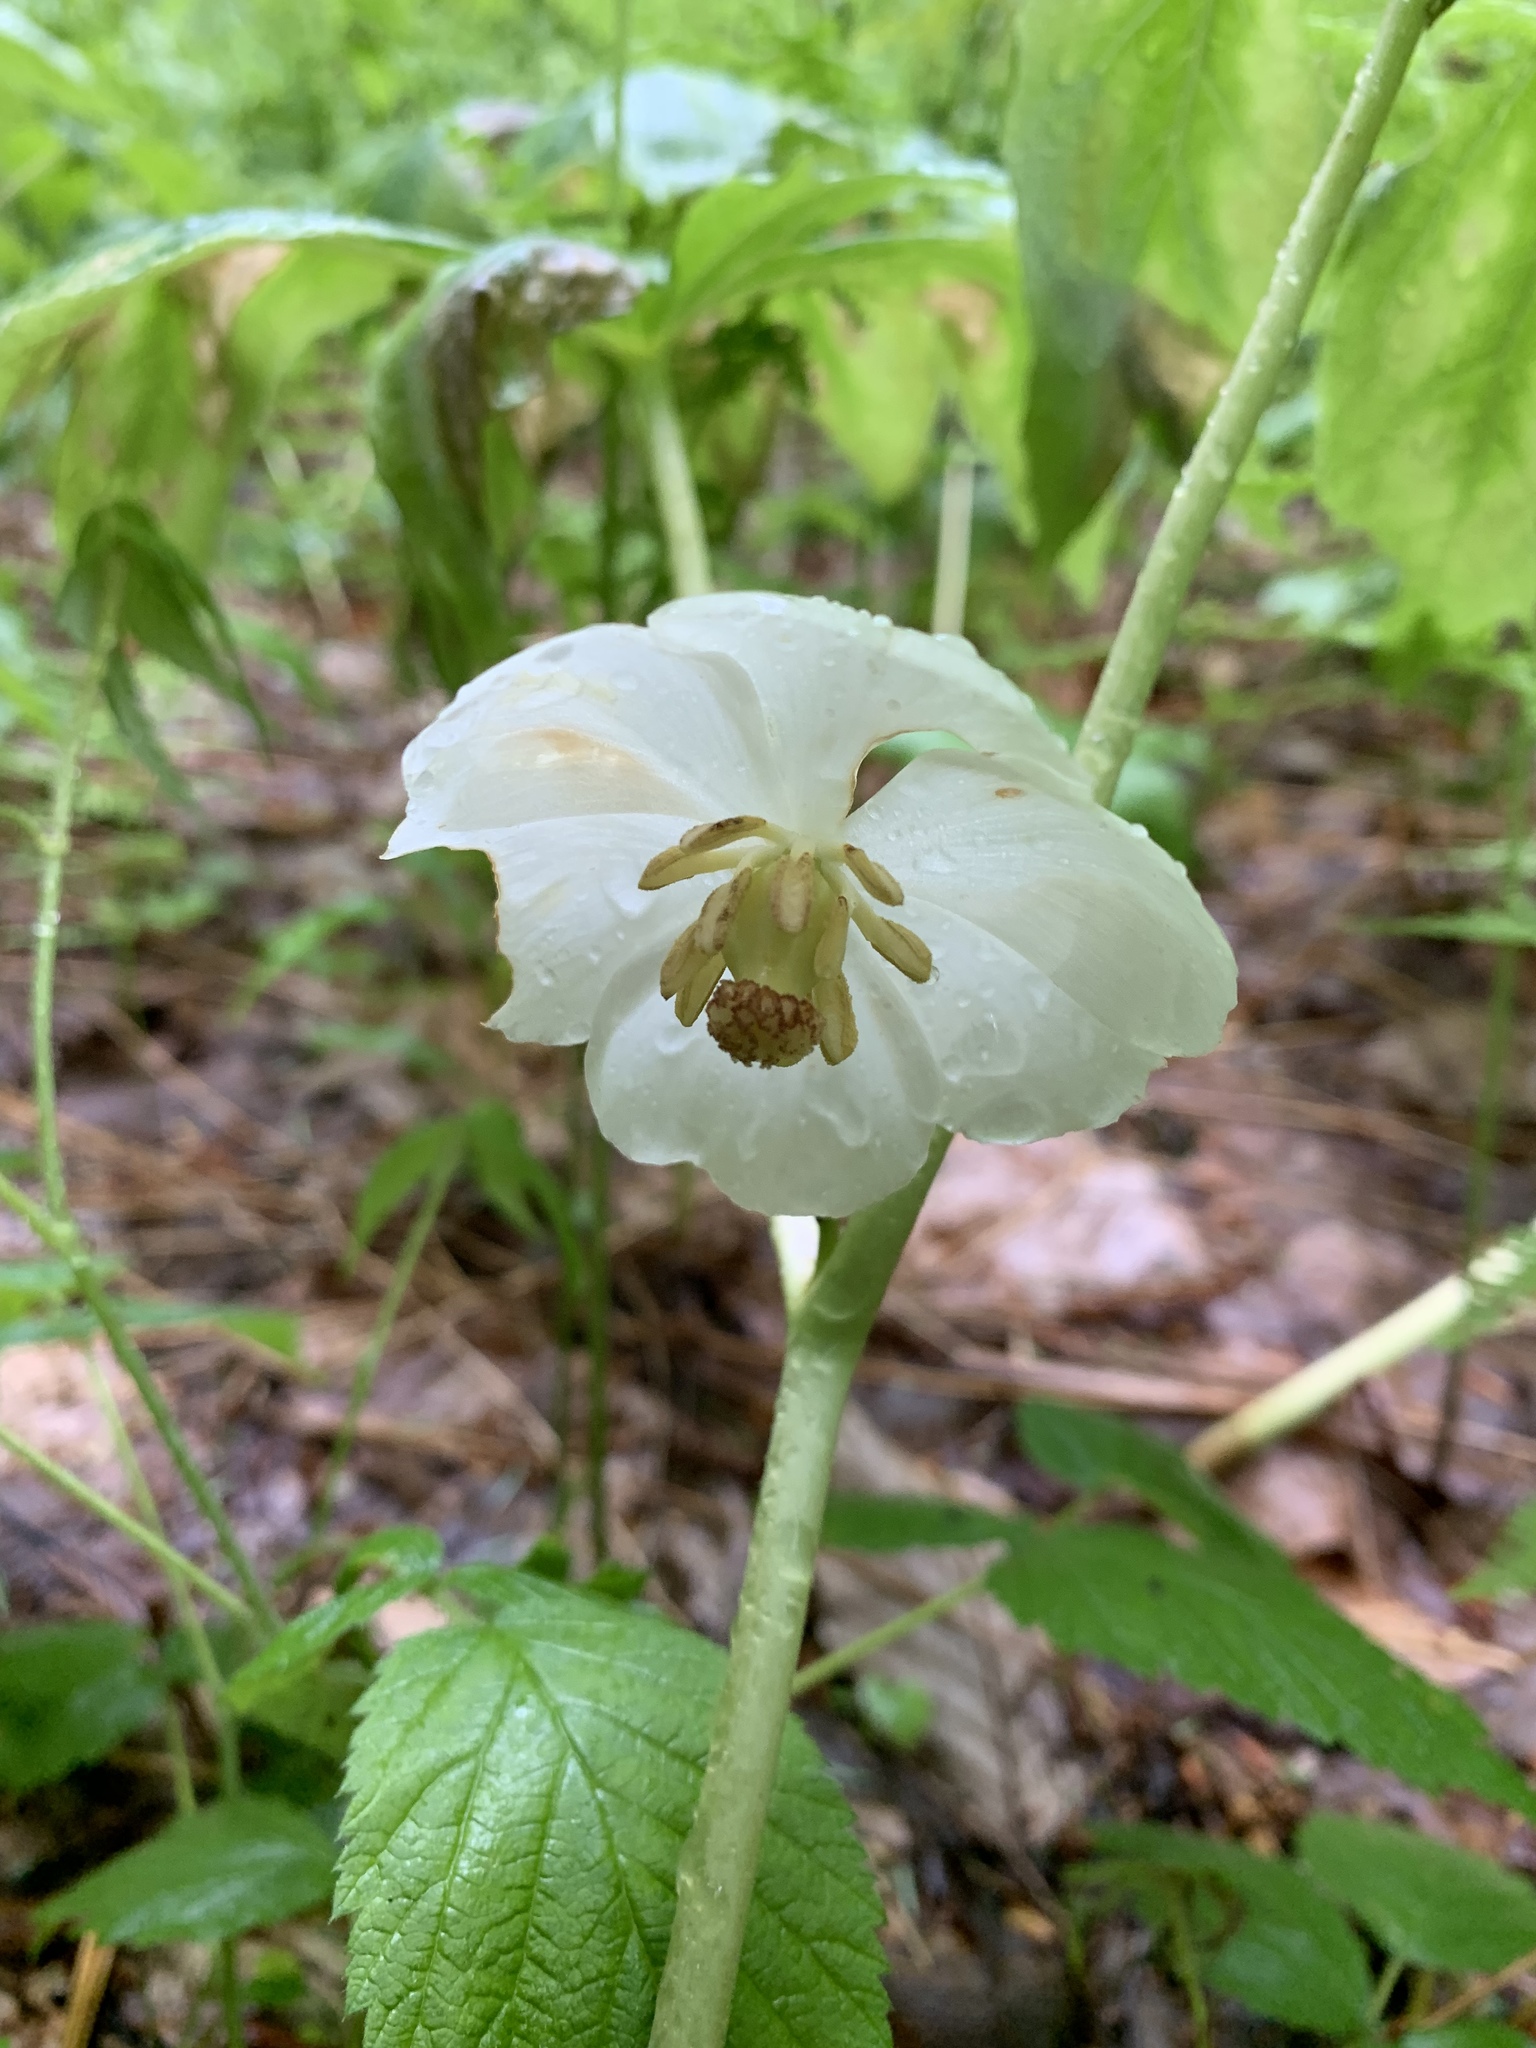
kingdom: Plantae
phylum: Tracheophyta
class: Magnoliopsida
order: Ranunculales
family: Berberidaceae
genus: Podophyllum
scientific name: Podophyllum peltatum
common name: Wild mandrake
